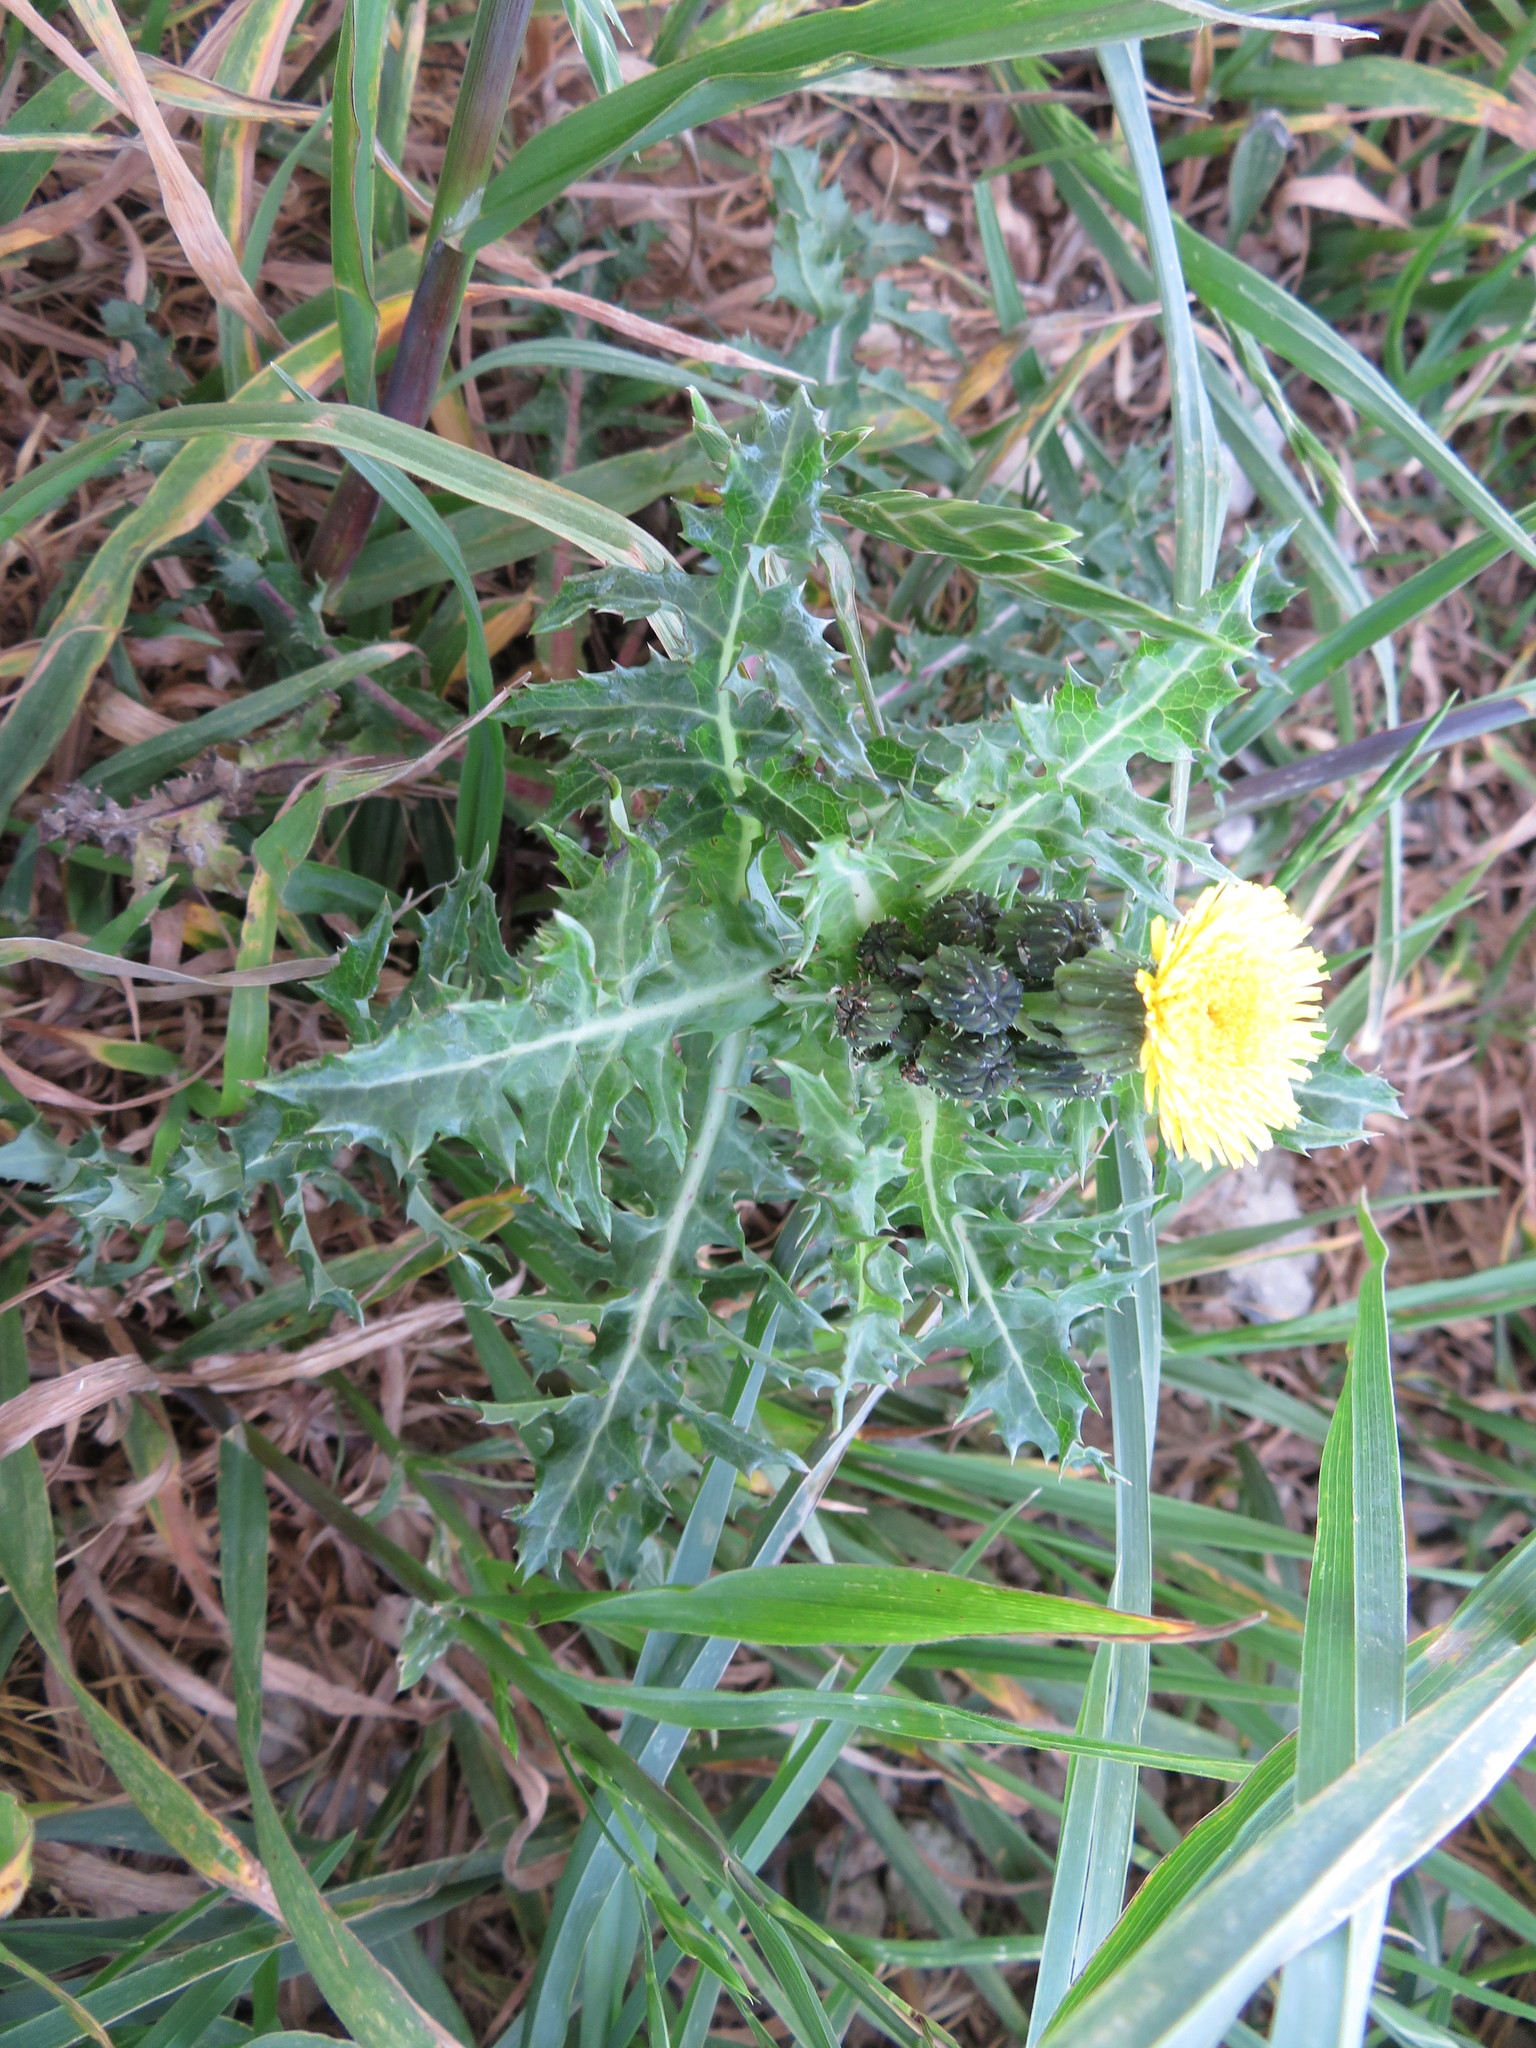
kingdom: Plantae
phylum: Tracheophyta
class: Magnoliopsida
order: Asterales
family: Asteraceae
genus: Sonchus
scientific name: Sonchus asper
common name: Prickly sow-thistle
